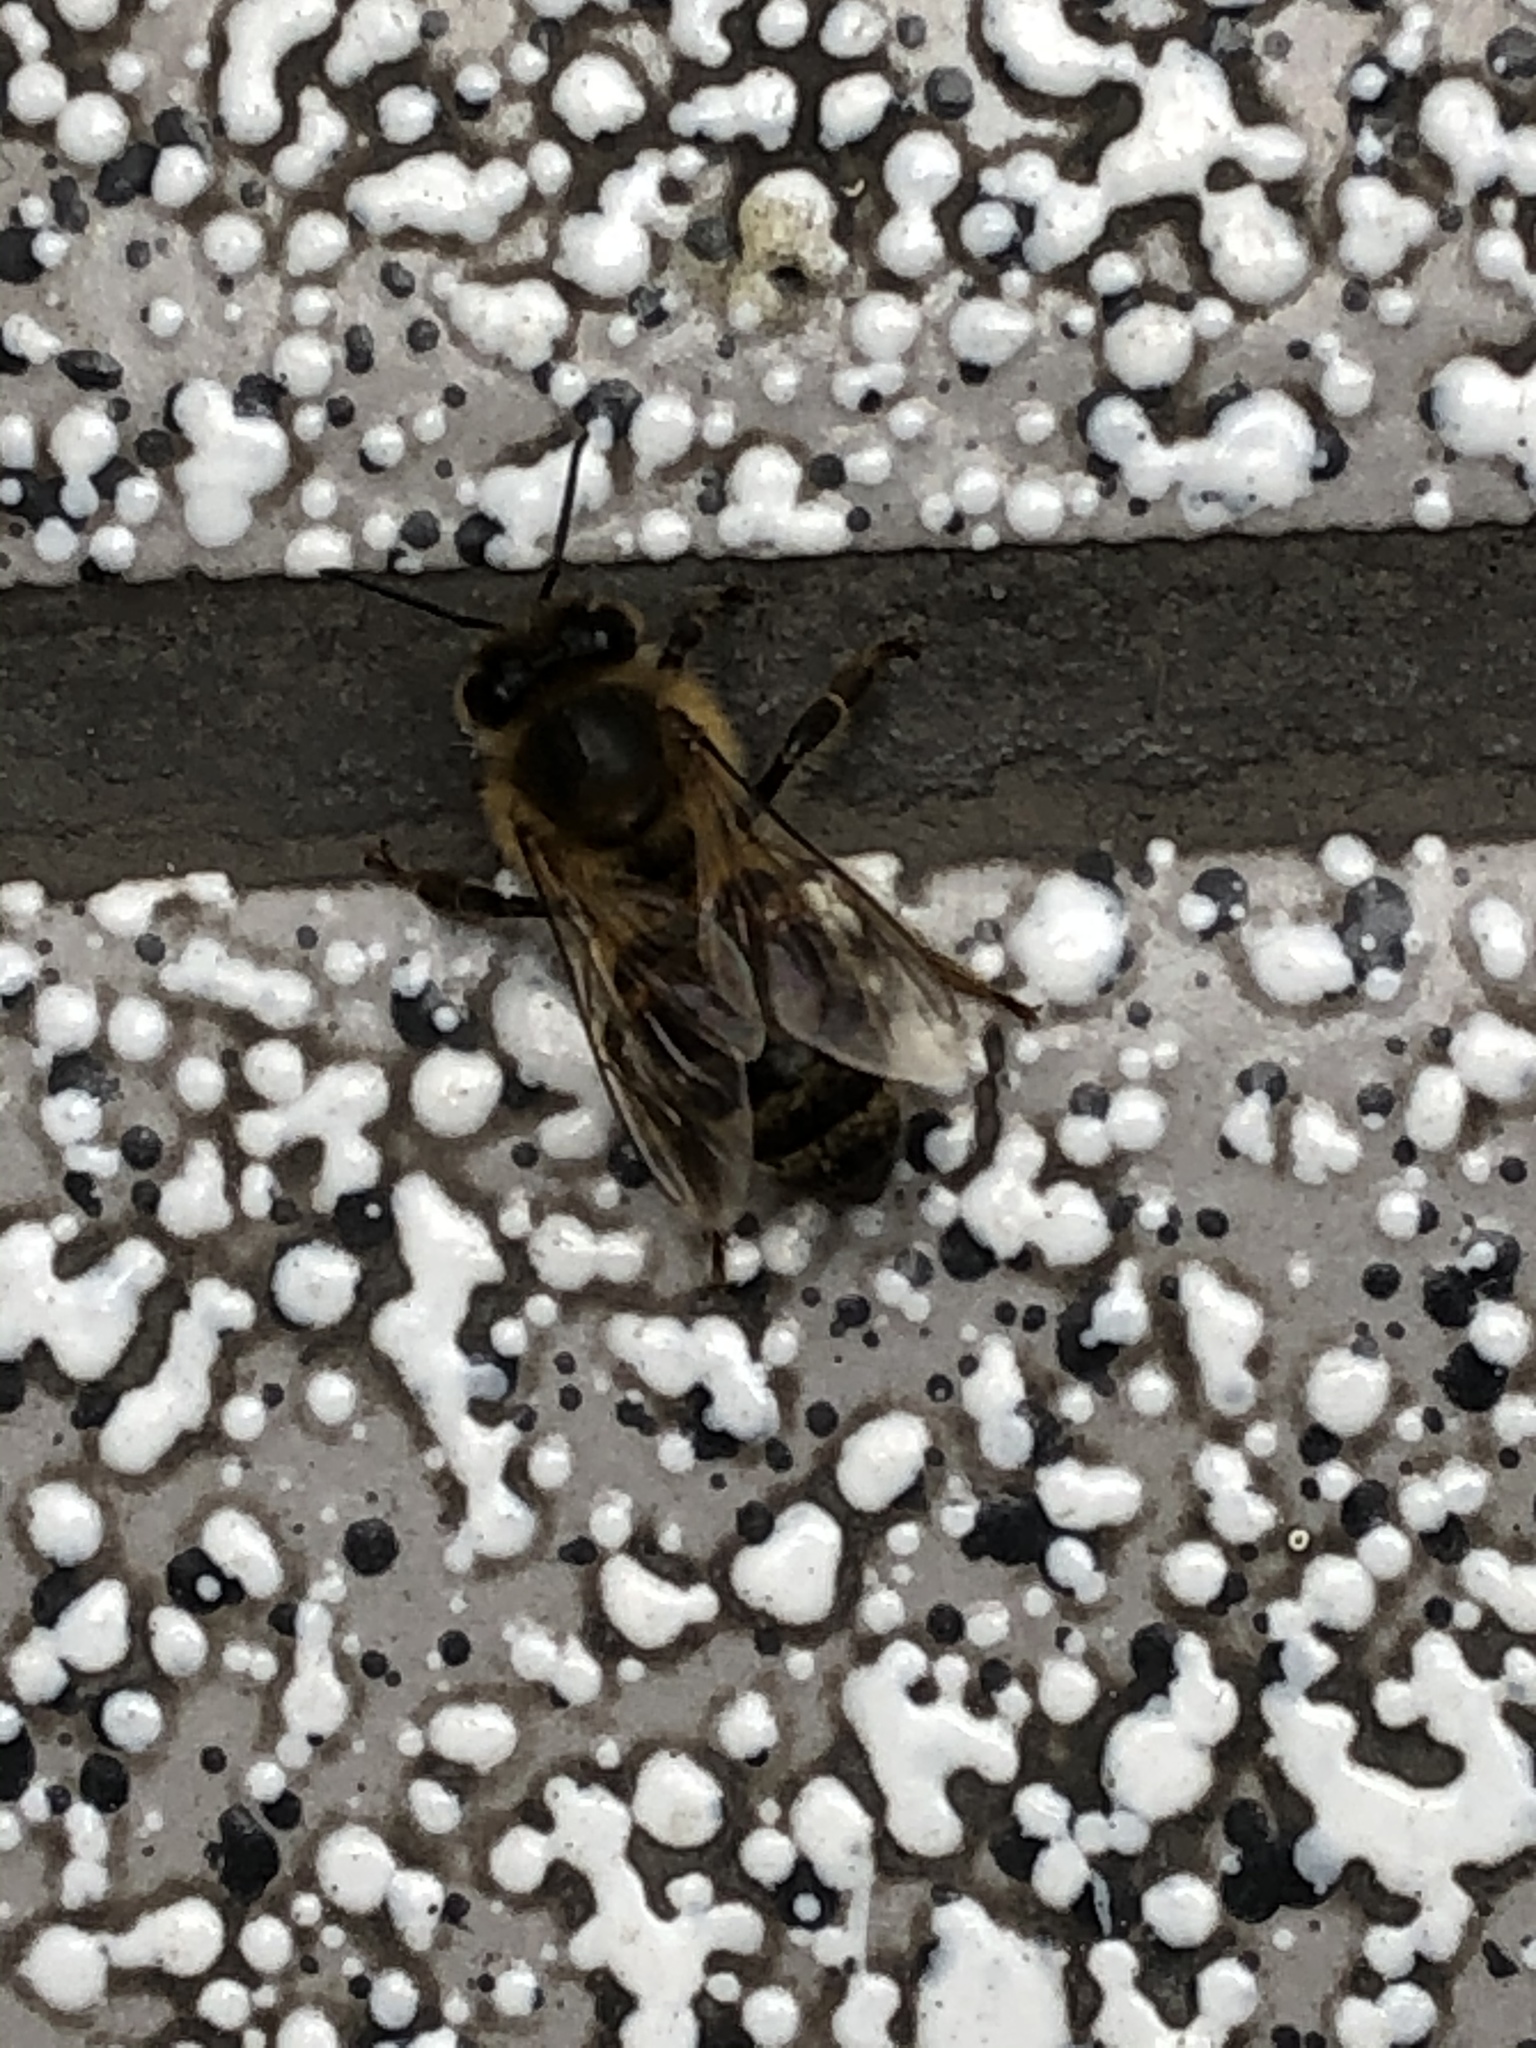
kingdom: Animalia
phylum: Arthropoda
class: Insecta
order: Hymenoptera
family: Apidae
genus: Apis
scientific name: Apis mellifera
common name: Honey bee
